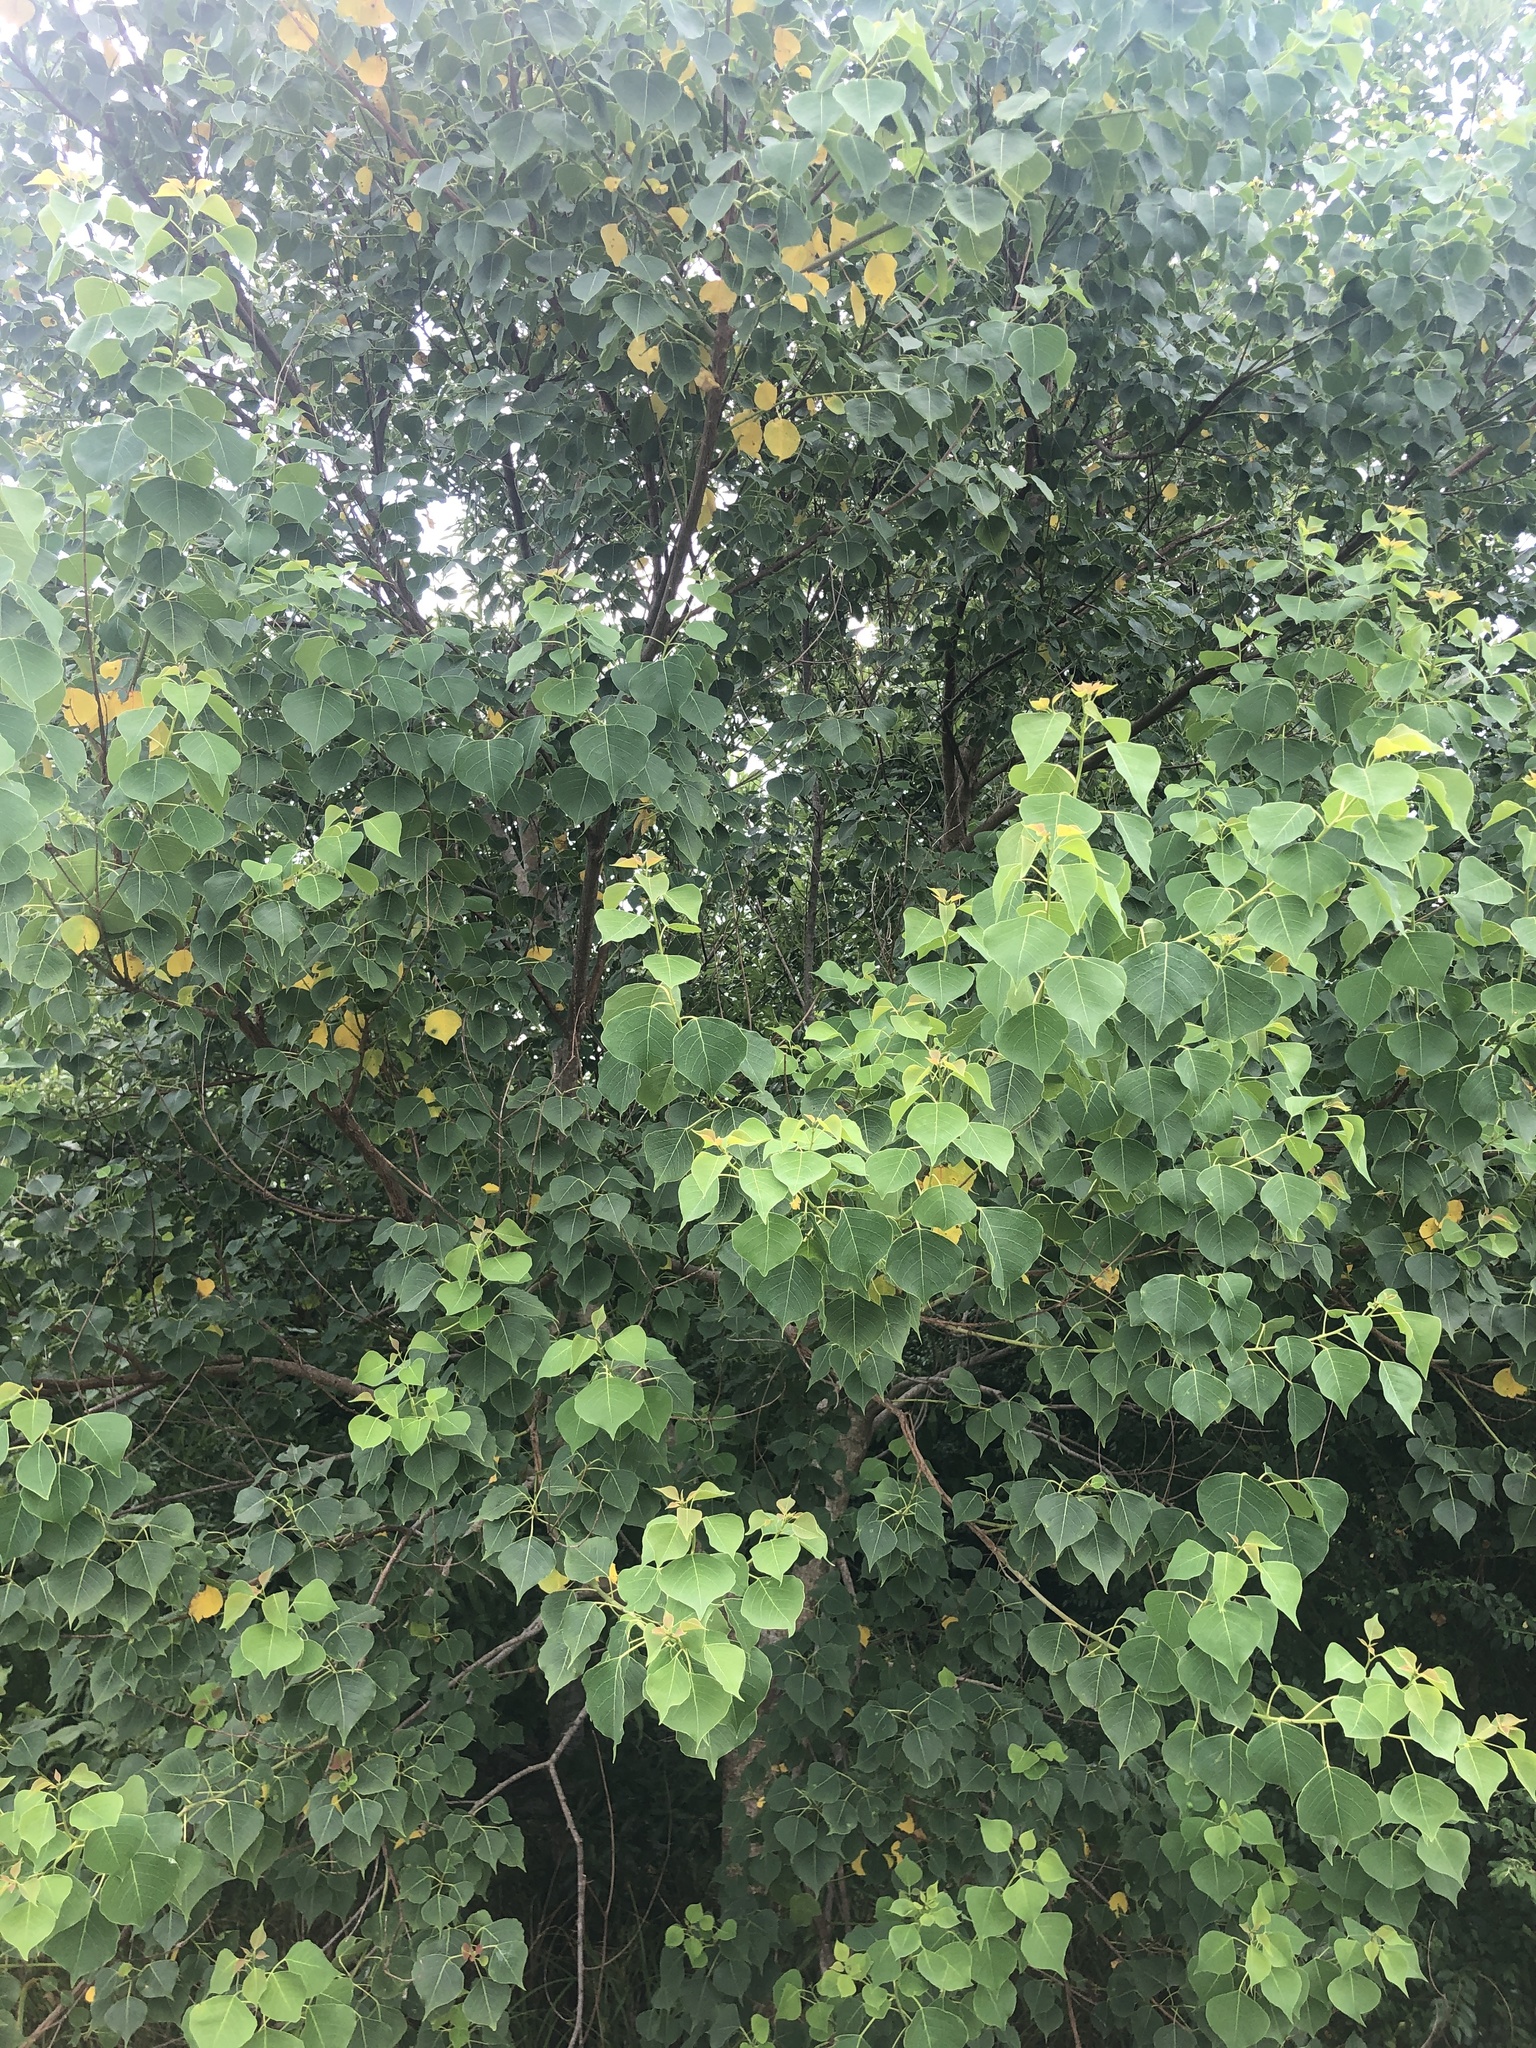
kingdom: Plantae
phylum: Tracheophyta
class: Magnoliopsida
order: Malpighiales
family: Euphorbiaceae
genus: Triadica
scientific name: Triadica sebifera
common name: Chinese tallow
